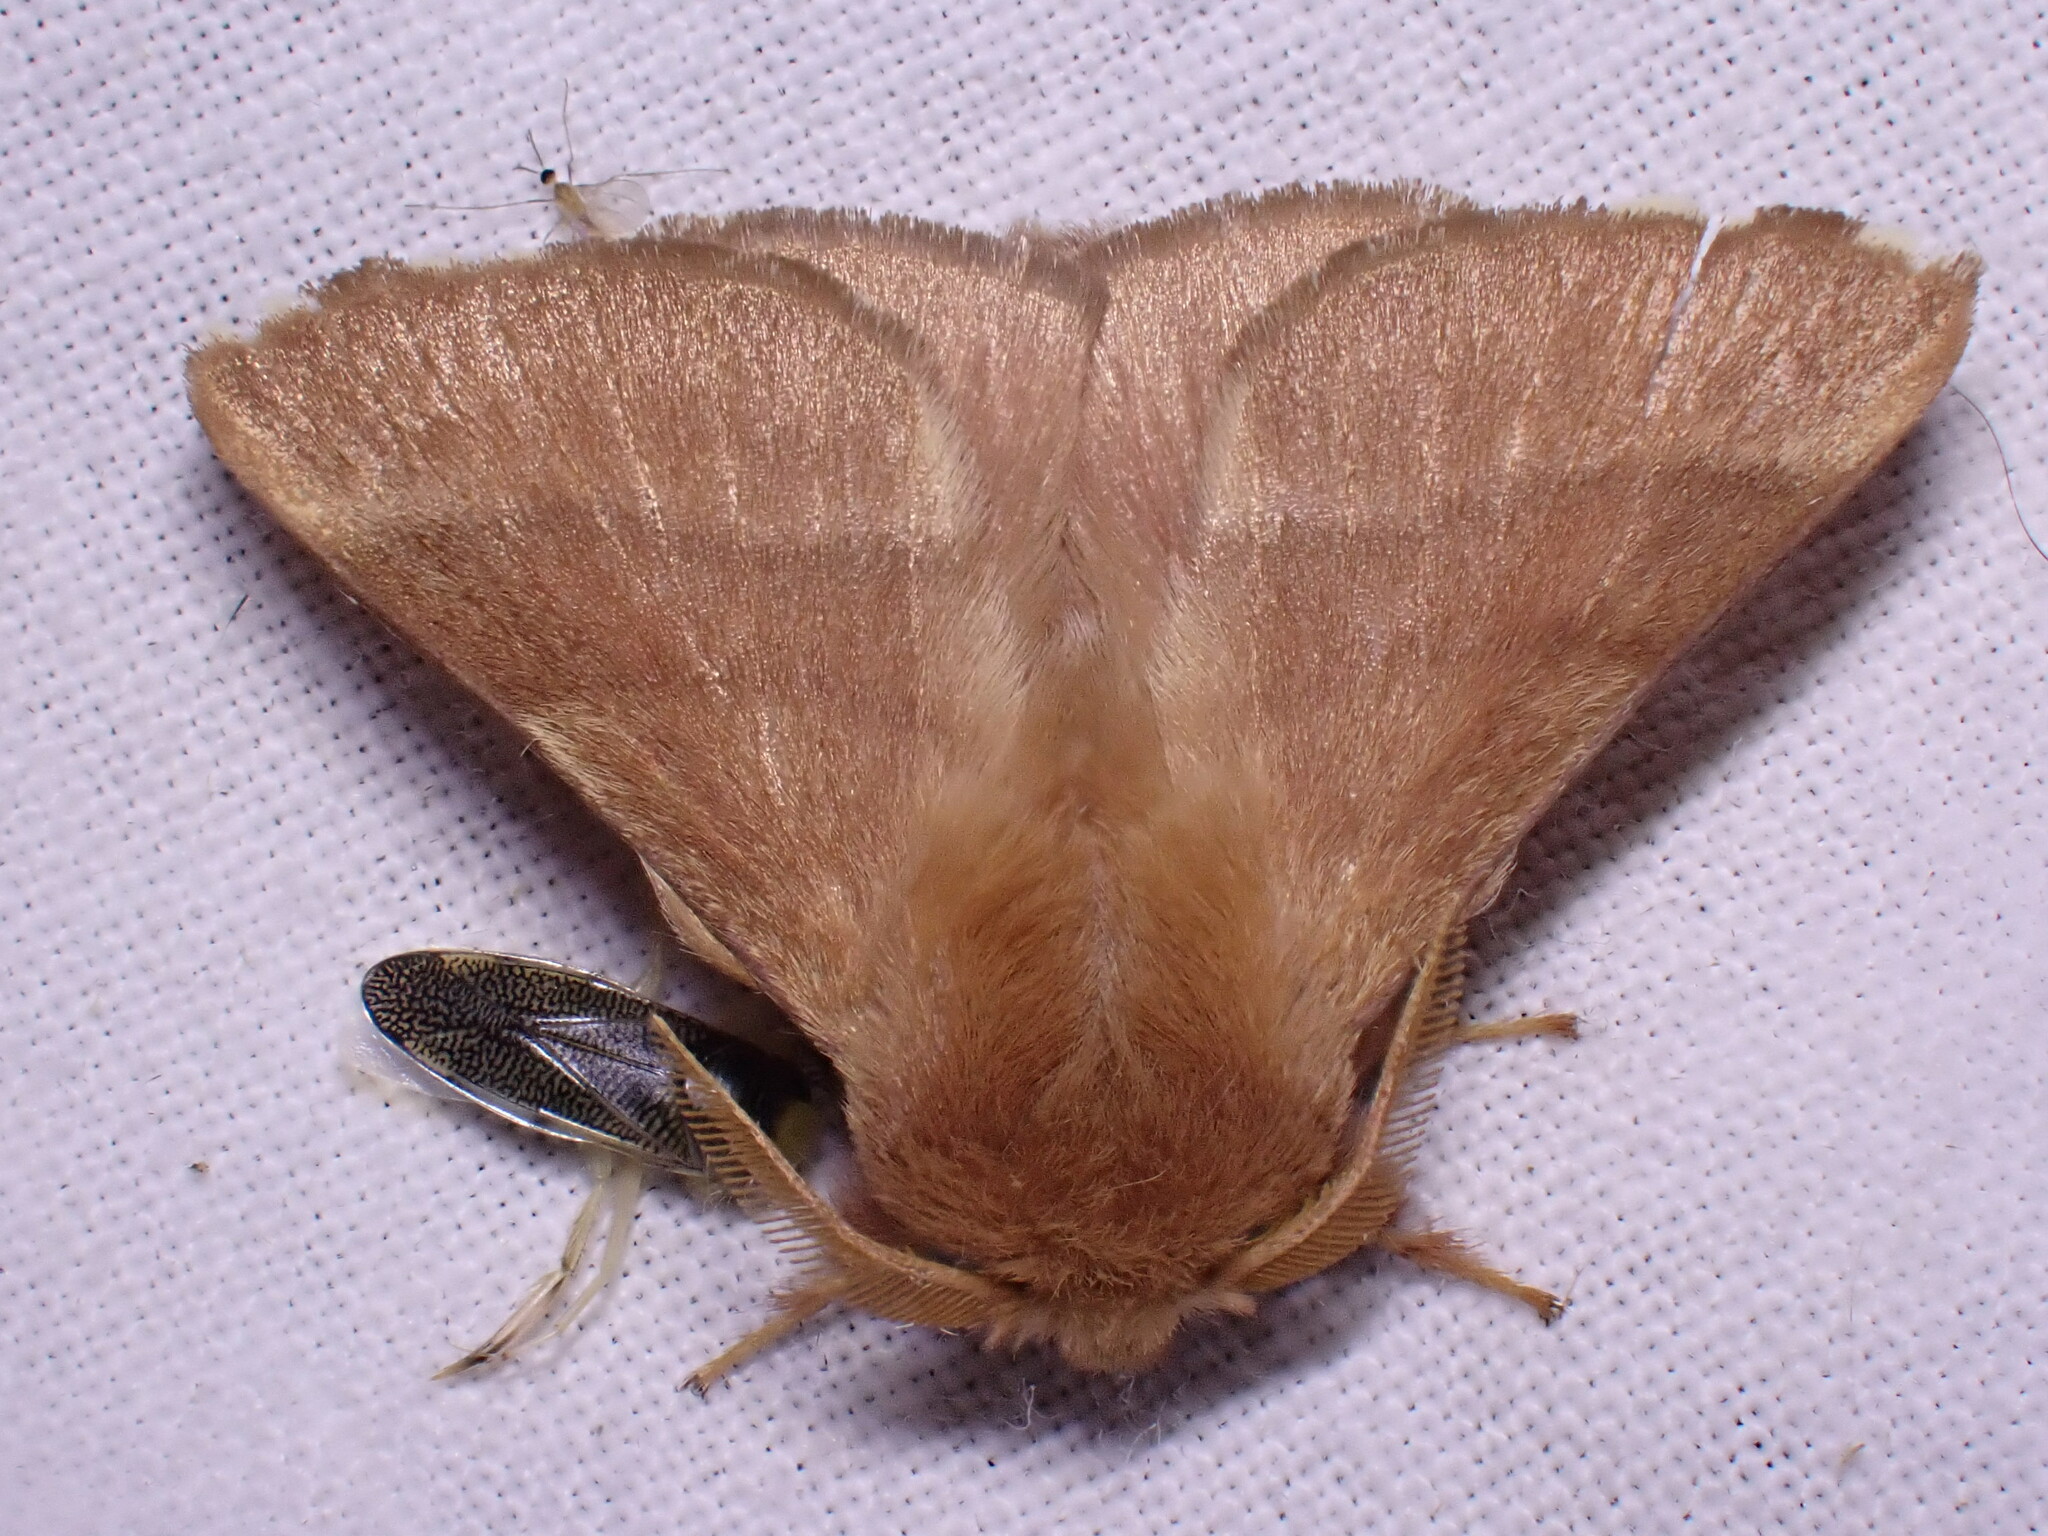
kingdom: Animalia
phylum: Arthropoda
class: Insecta
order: Lepidoptera
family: Lasiocampidae
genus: Malacosoma
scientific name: Malacosoma neustria
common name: The lackey
